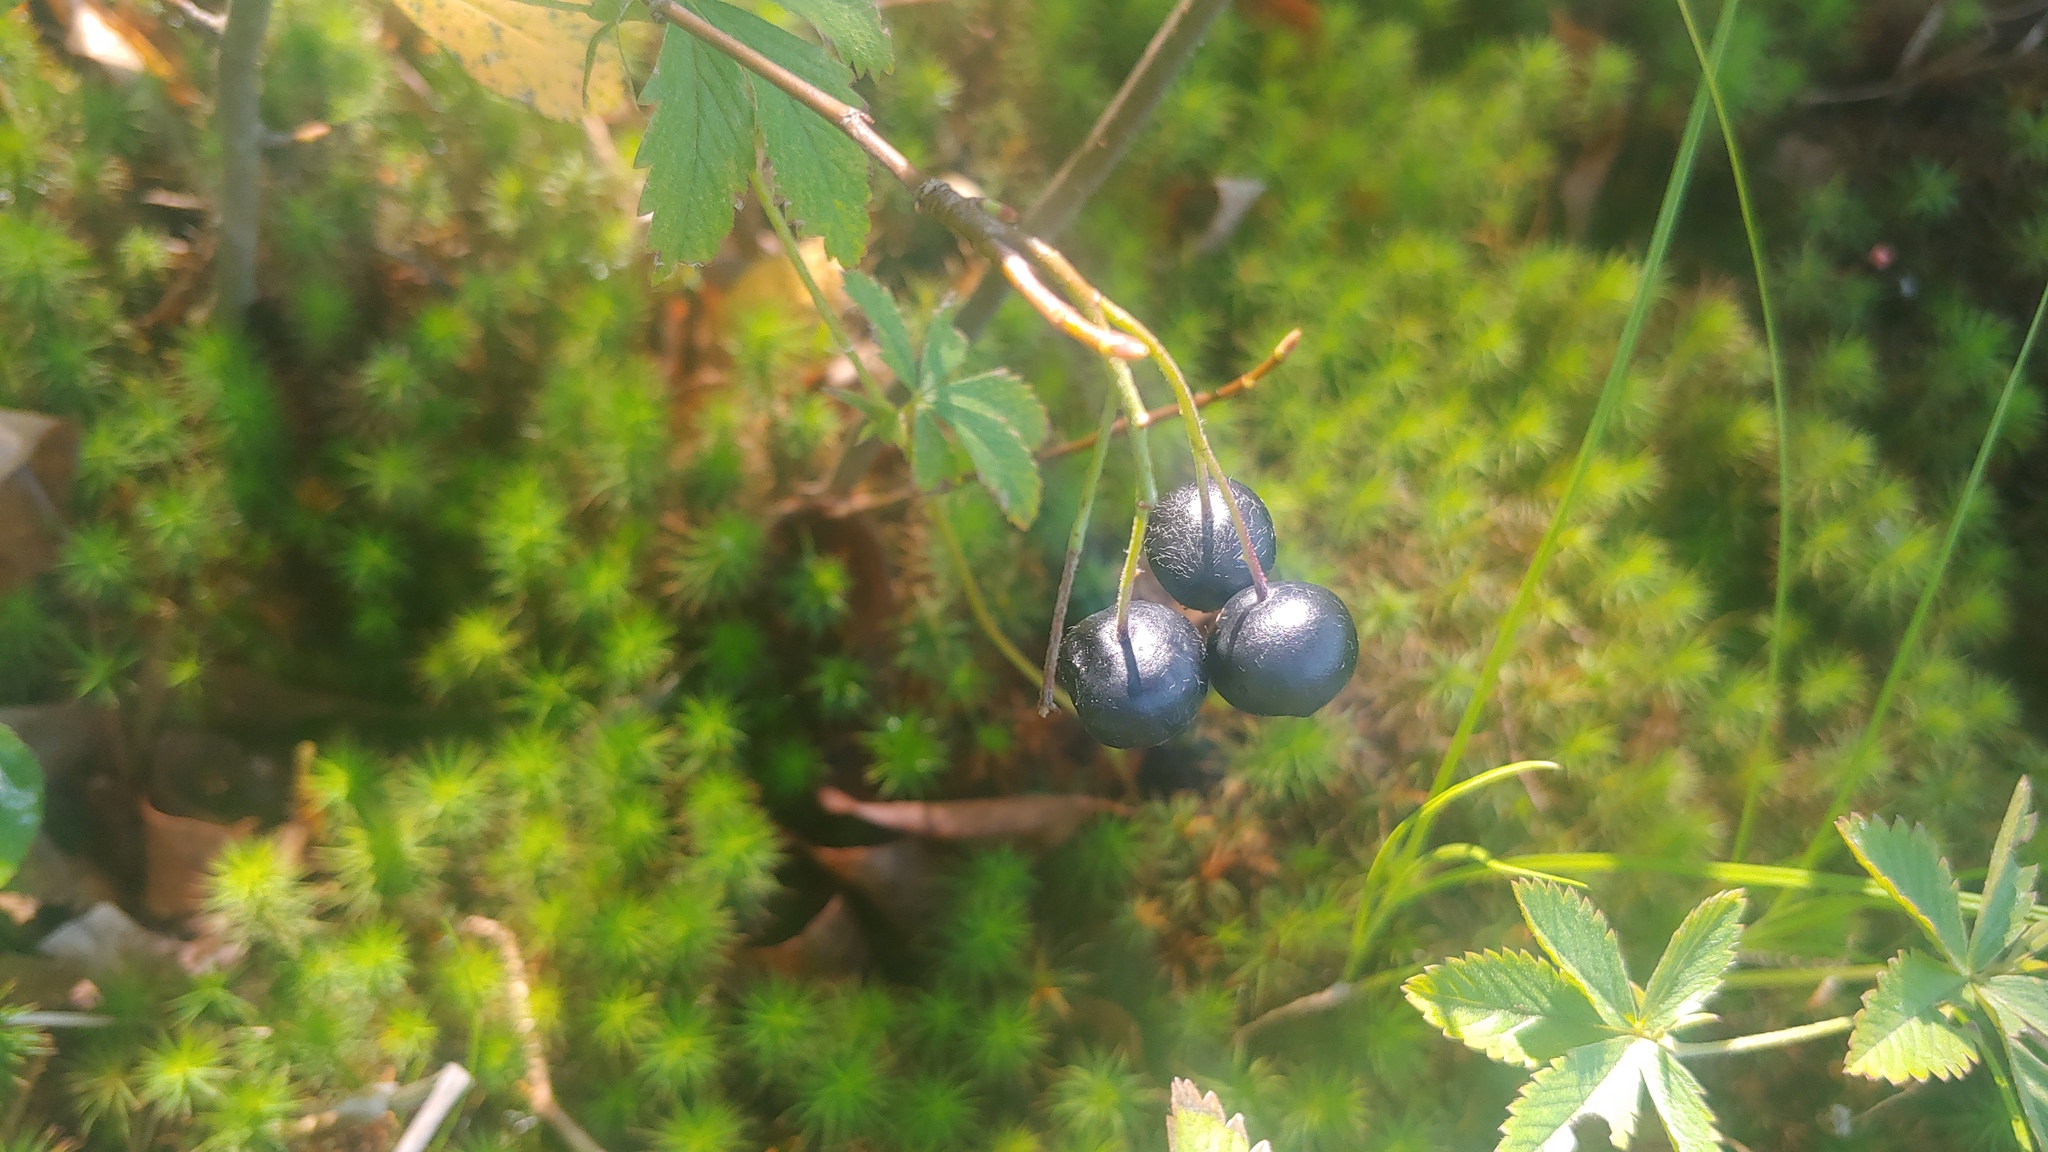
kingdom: Plantae
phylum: Tracheophyta
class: Magnoliopsida
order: Rosales
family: Rosaceae
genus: Aronia
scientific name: Aronia melanocarpa
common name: Black chokeberry
